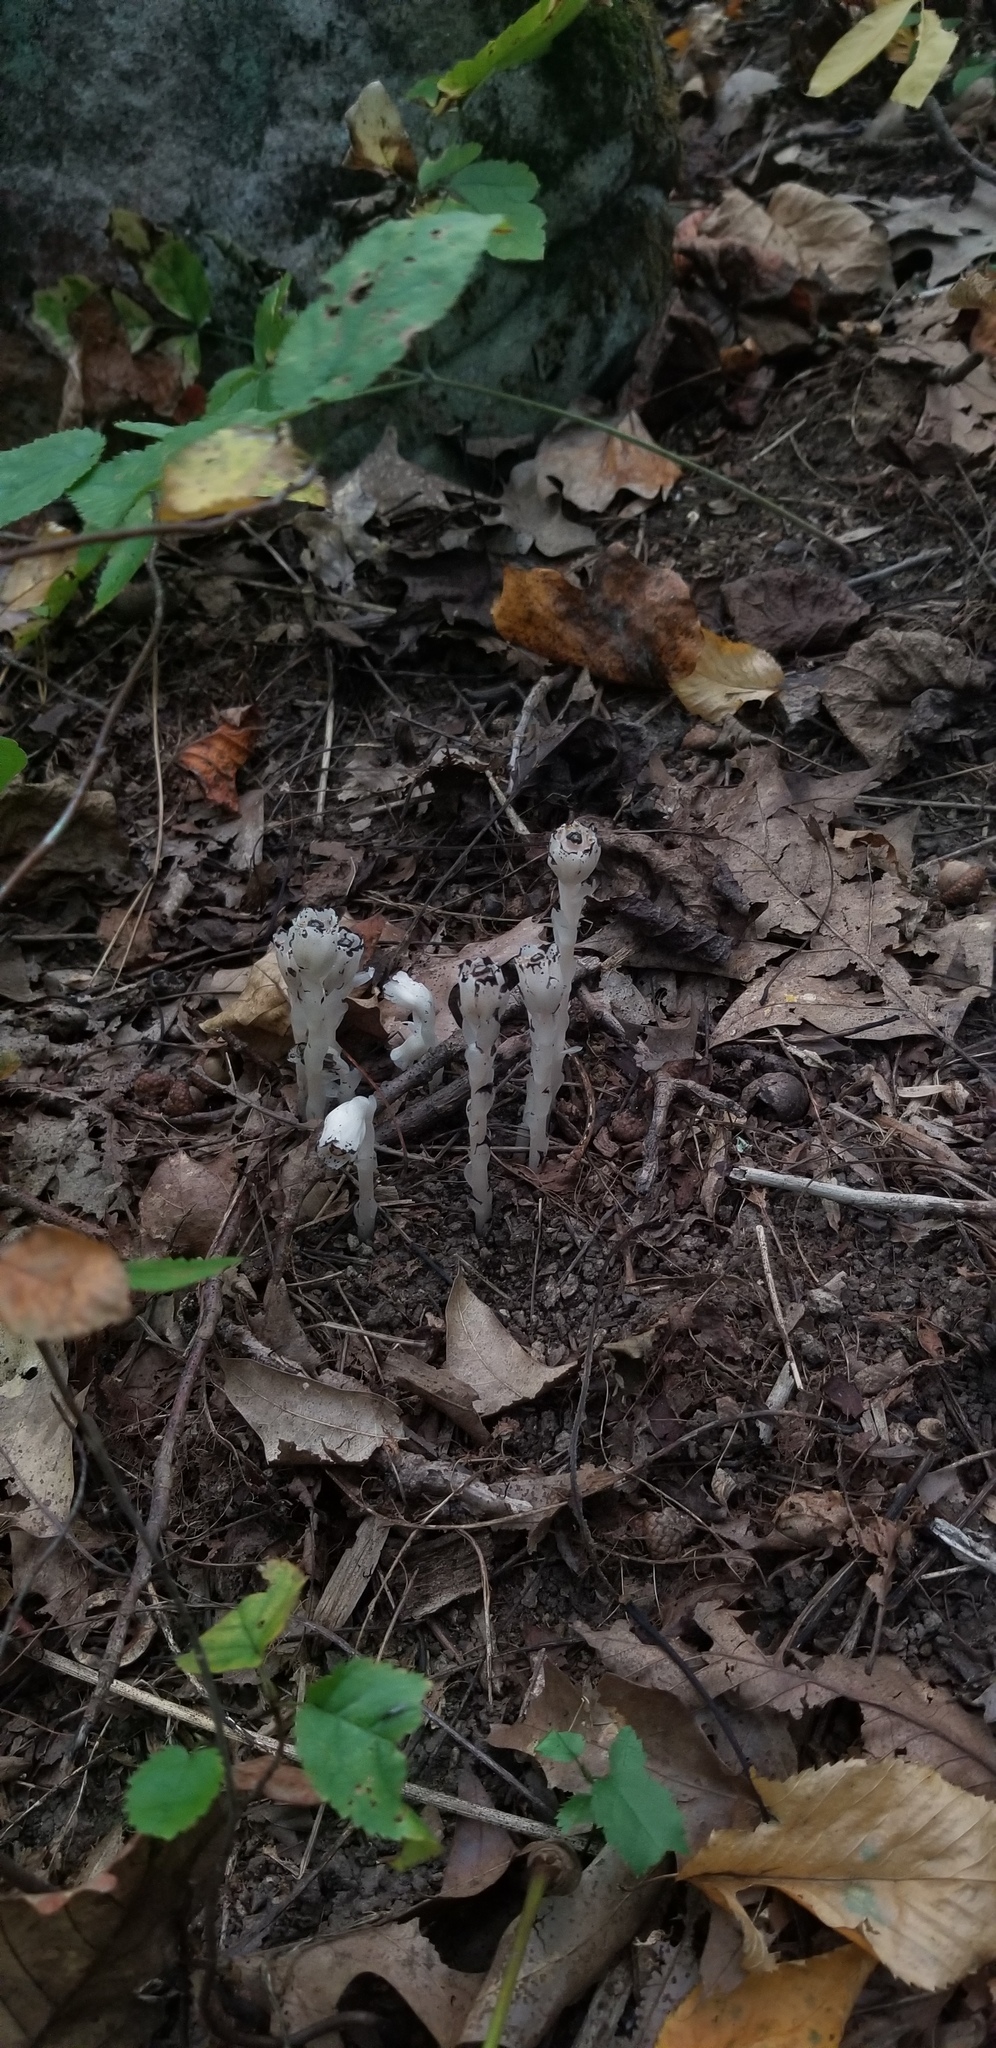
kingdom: Plantae
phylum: Tracheophyta
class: Magnoliopsida
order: Ericales
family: Ericaceae
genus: Monotropa
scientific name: Monotropa uniflora
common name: Convulsion root
